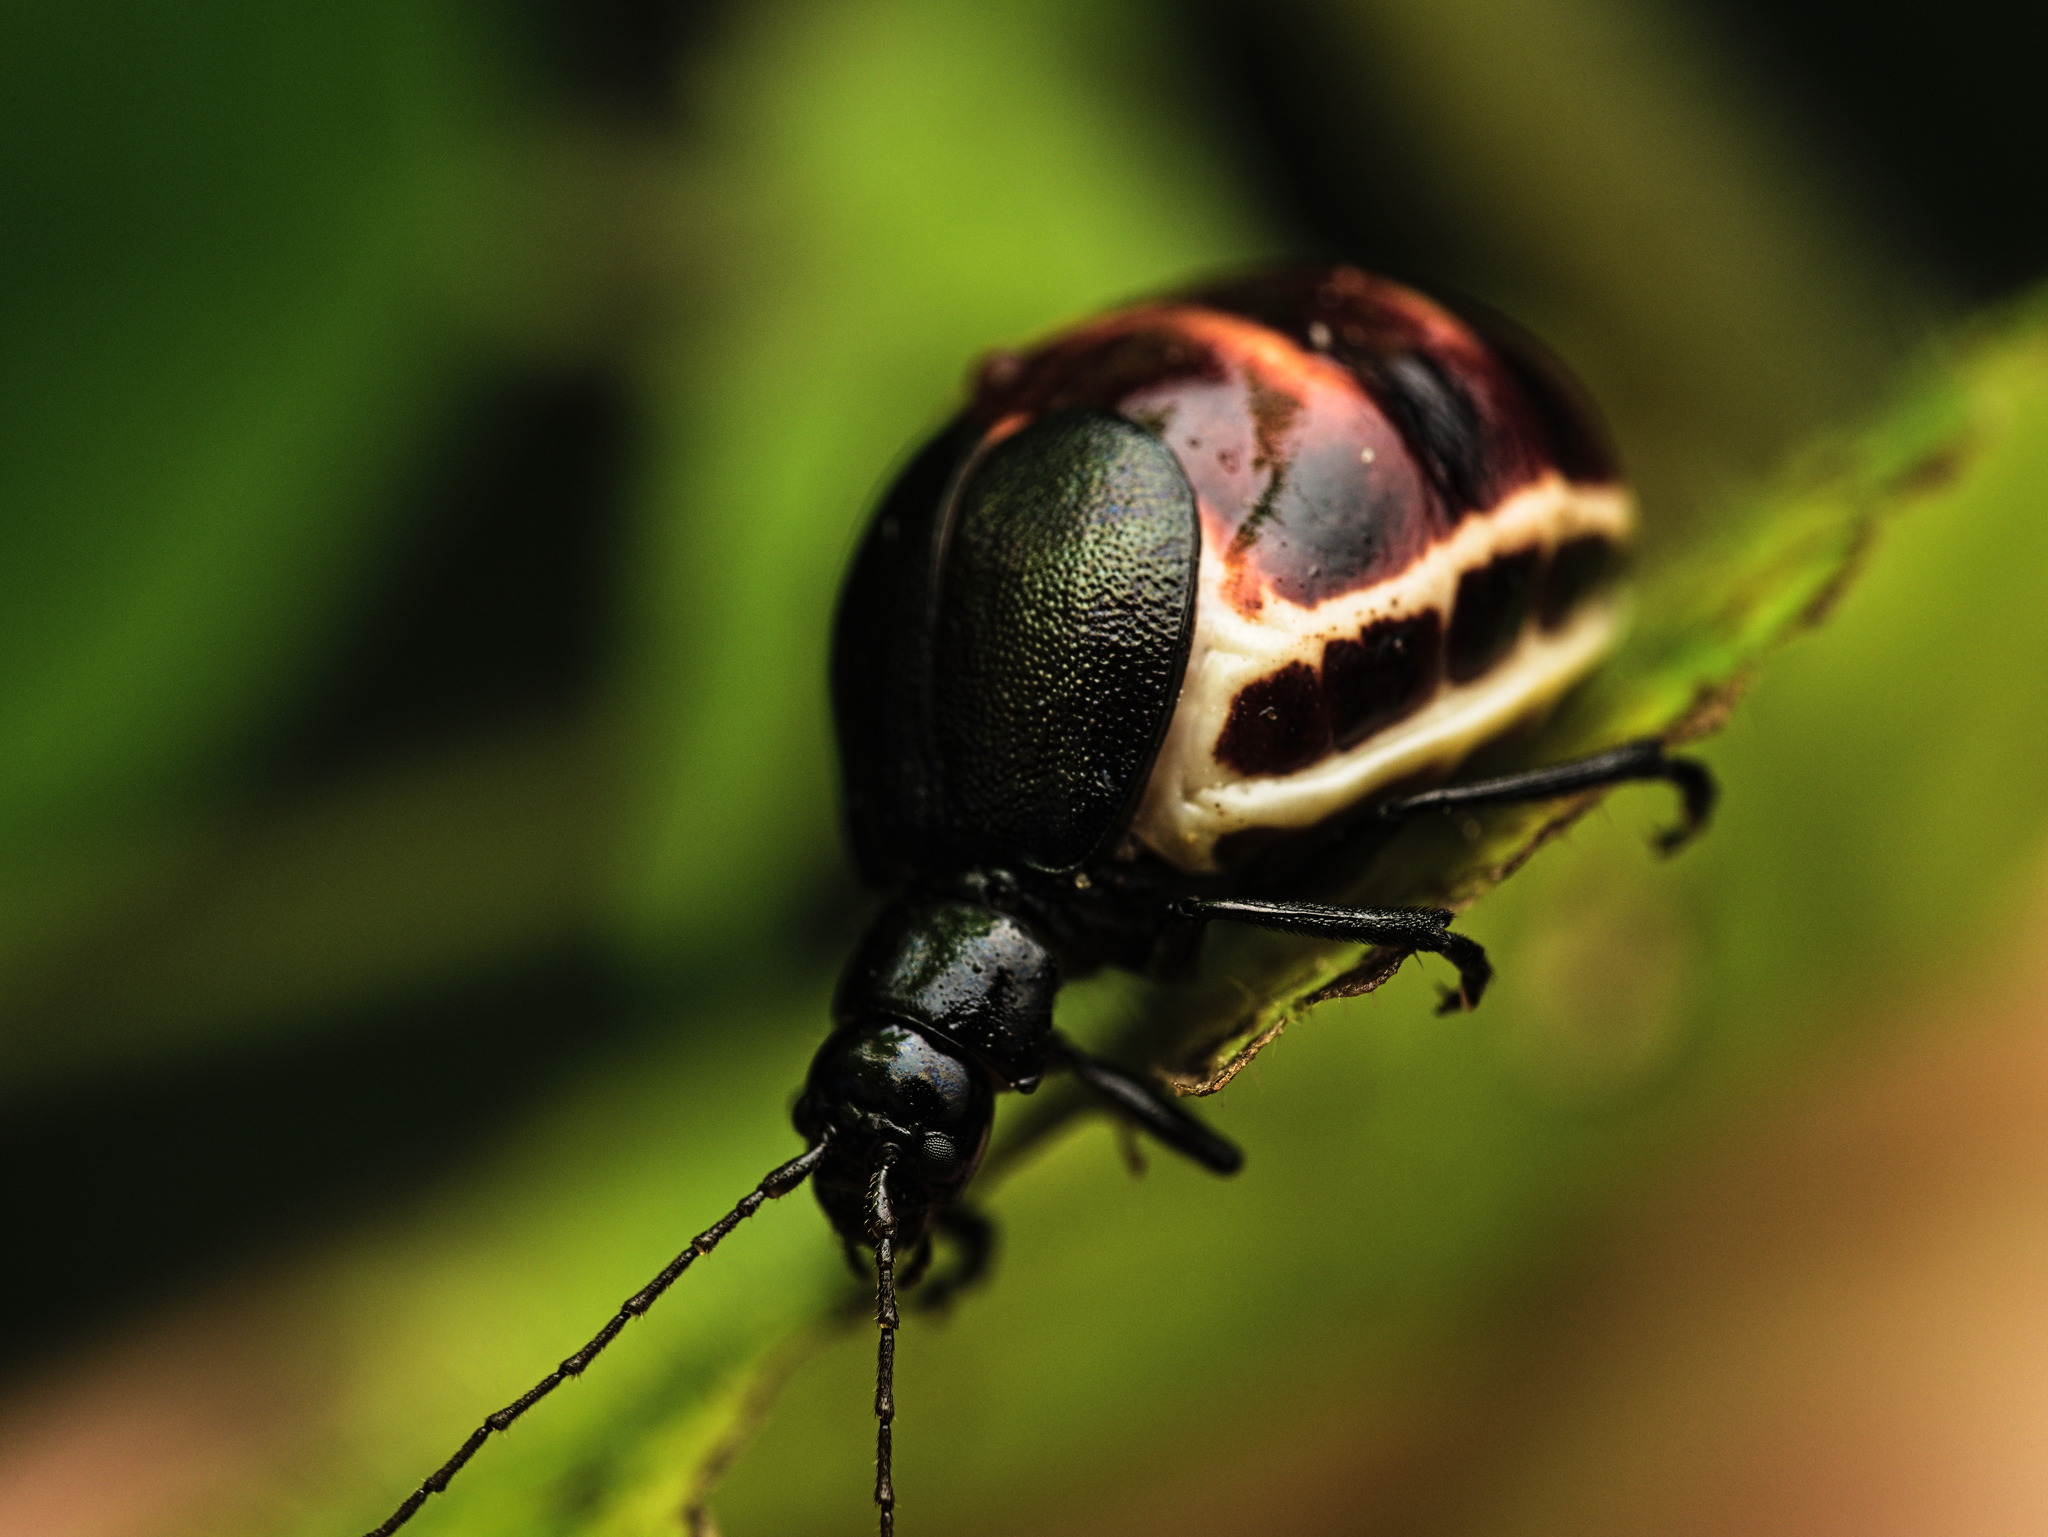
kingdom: Animalia
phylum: Arthropoda
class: Insecta
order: Coleoptera
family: Chrysomelidae
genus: Metacycla
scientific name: Metacycla
